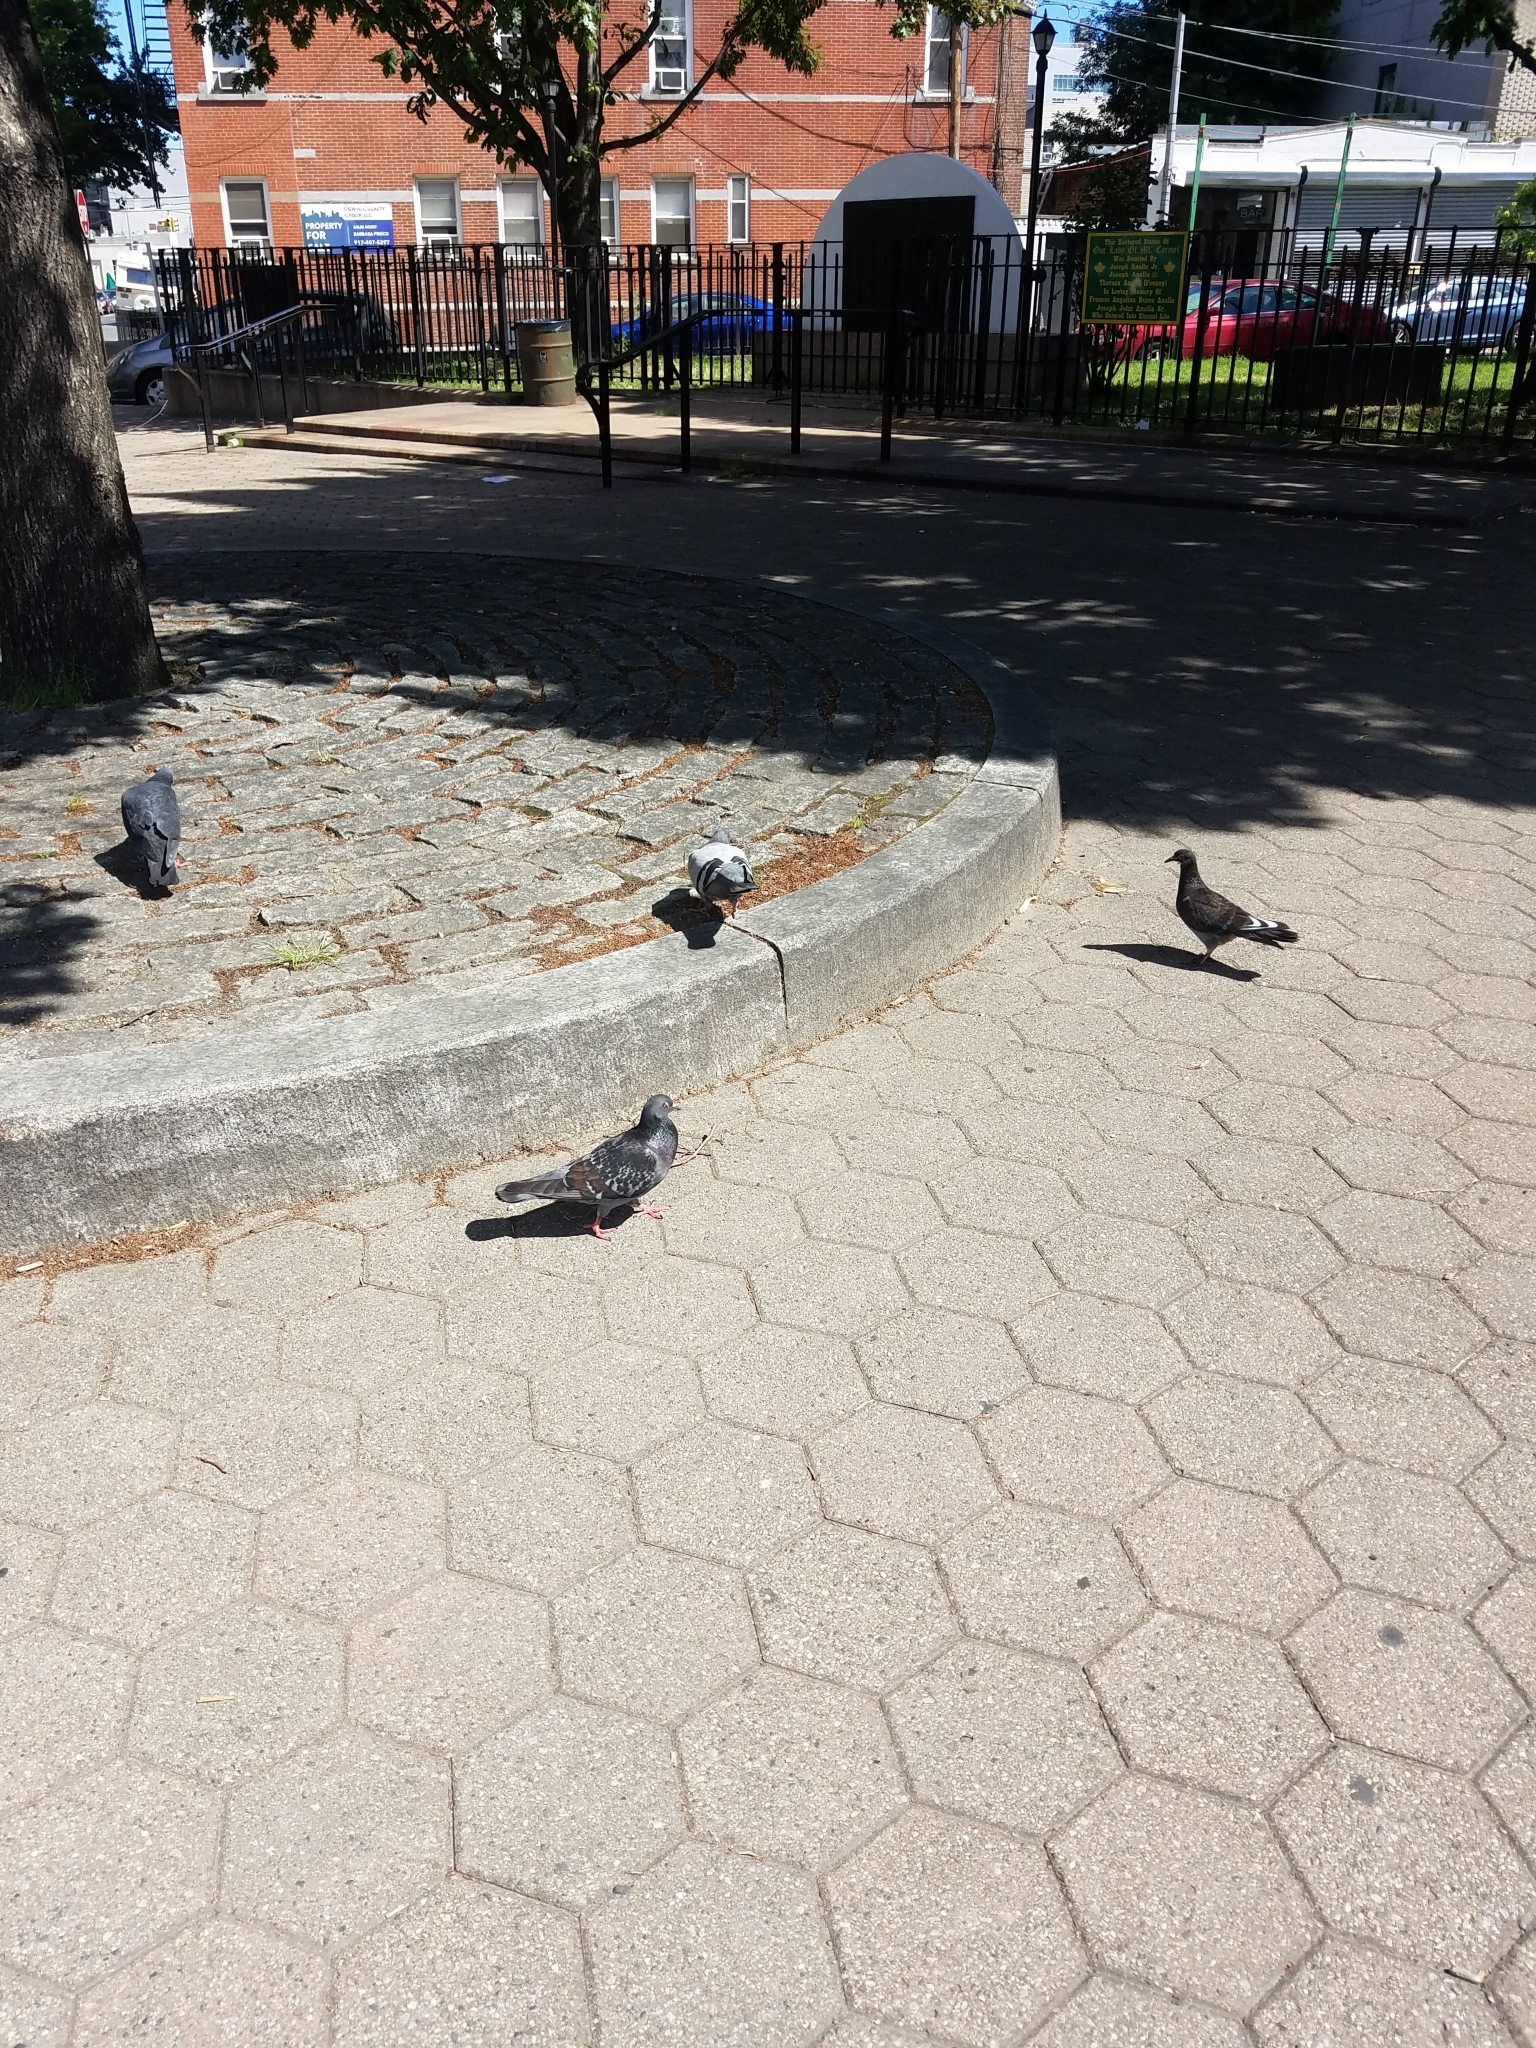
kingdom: Animalia
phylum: Chordata
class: Aves
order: Columbiformes
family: Columbidae
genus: Columba
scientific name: Columba livia
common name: Rock pigeon
